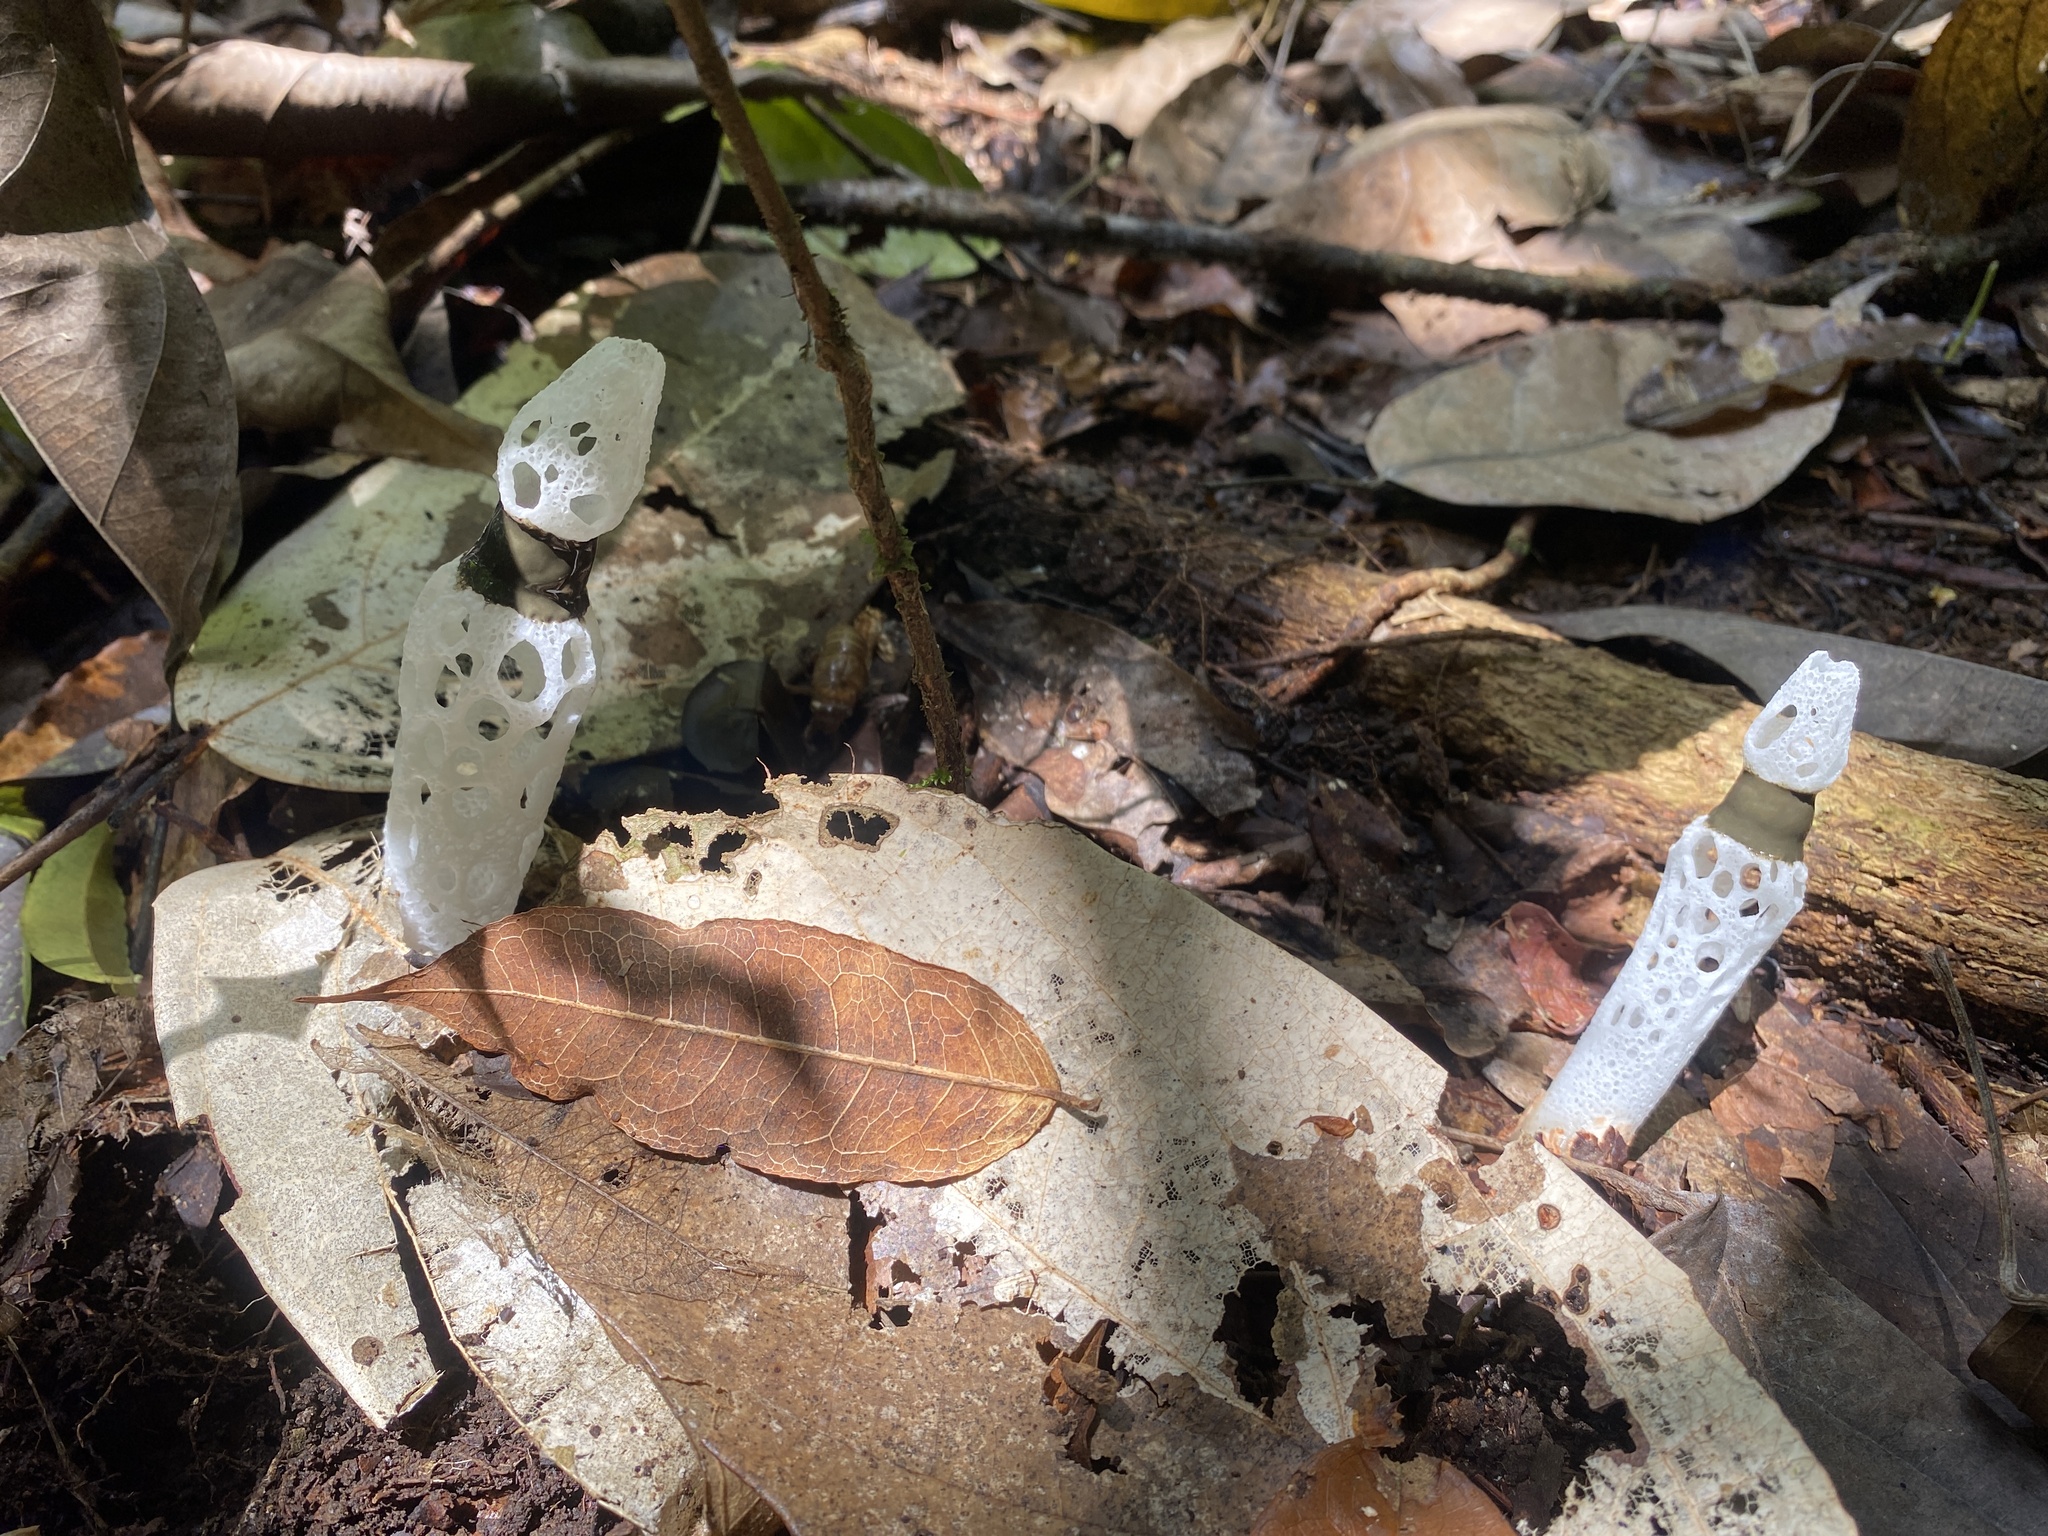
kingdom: Fungi
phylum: Basidiomycota
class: Agaricomycetes
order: Phallales
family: Phallaceae
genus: Staheliomyces
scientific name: Staheliomyces cinctus
